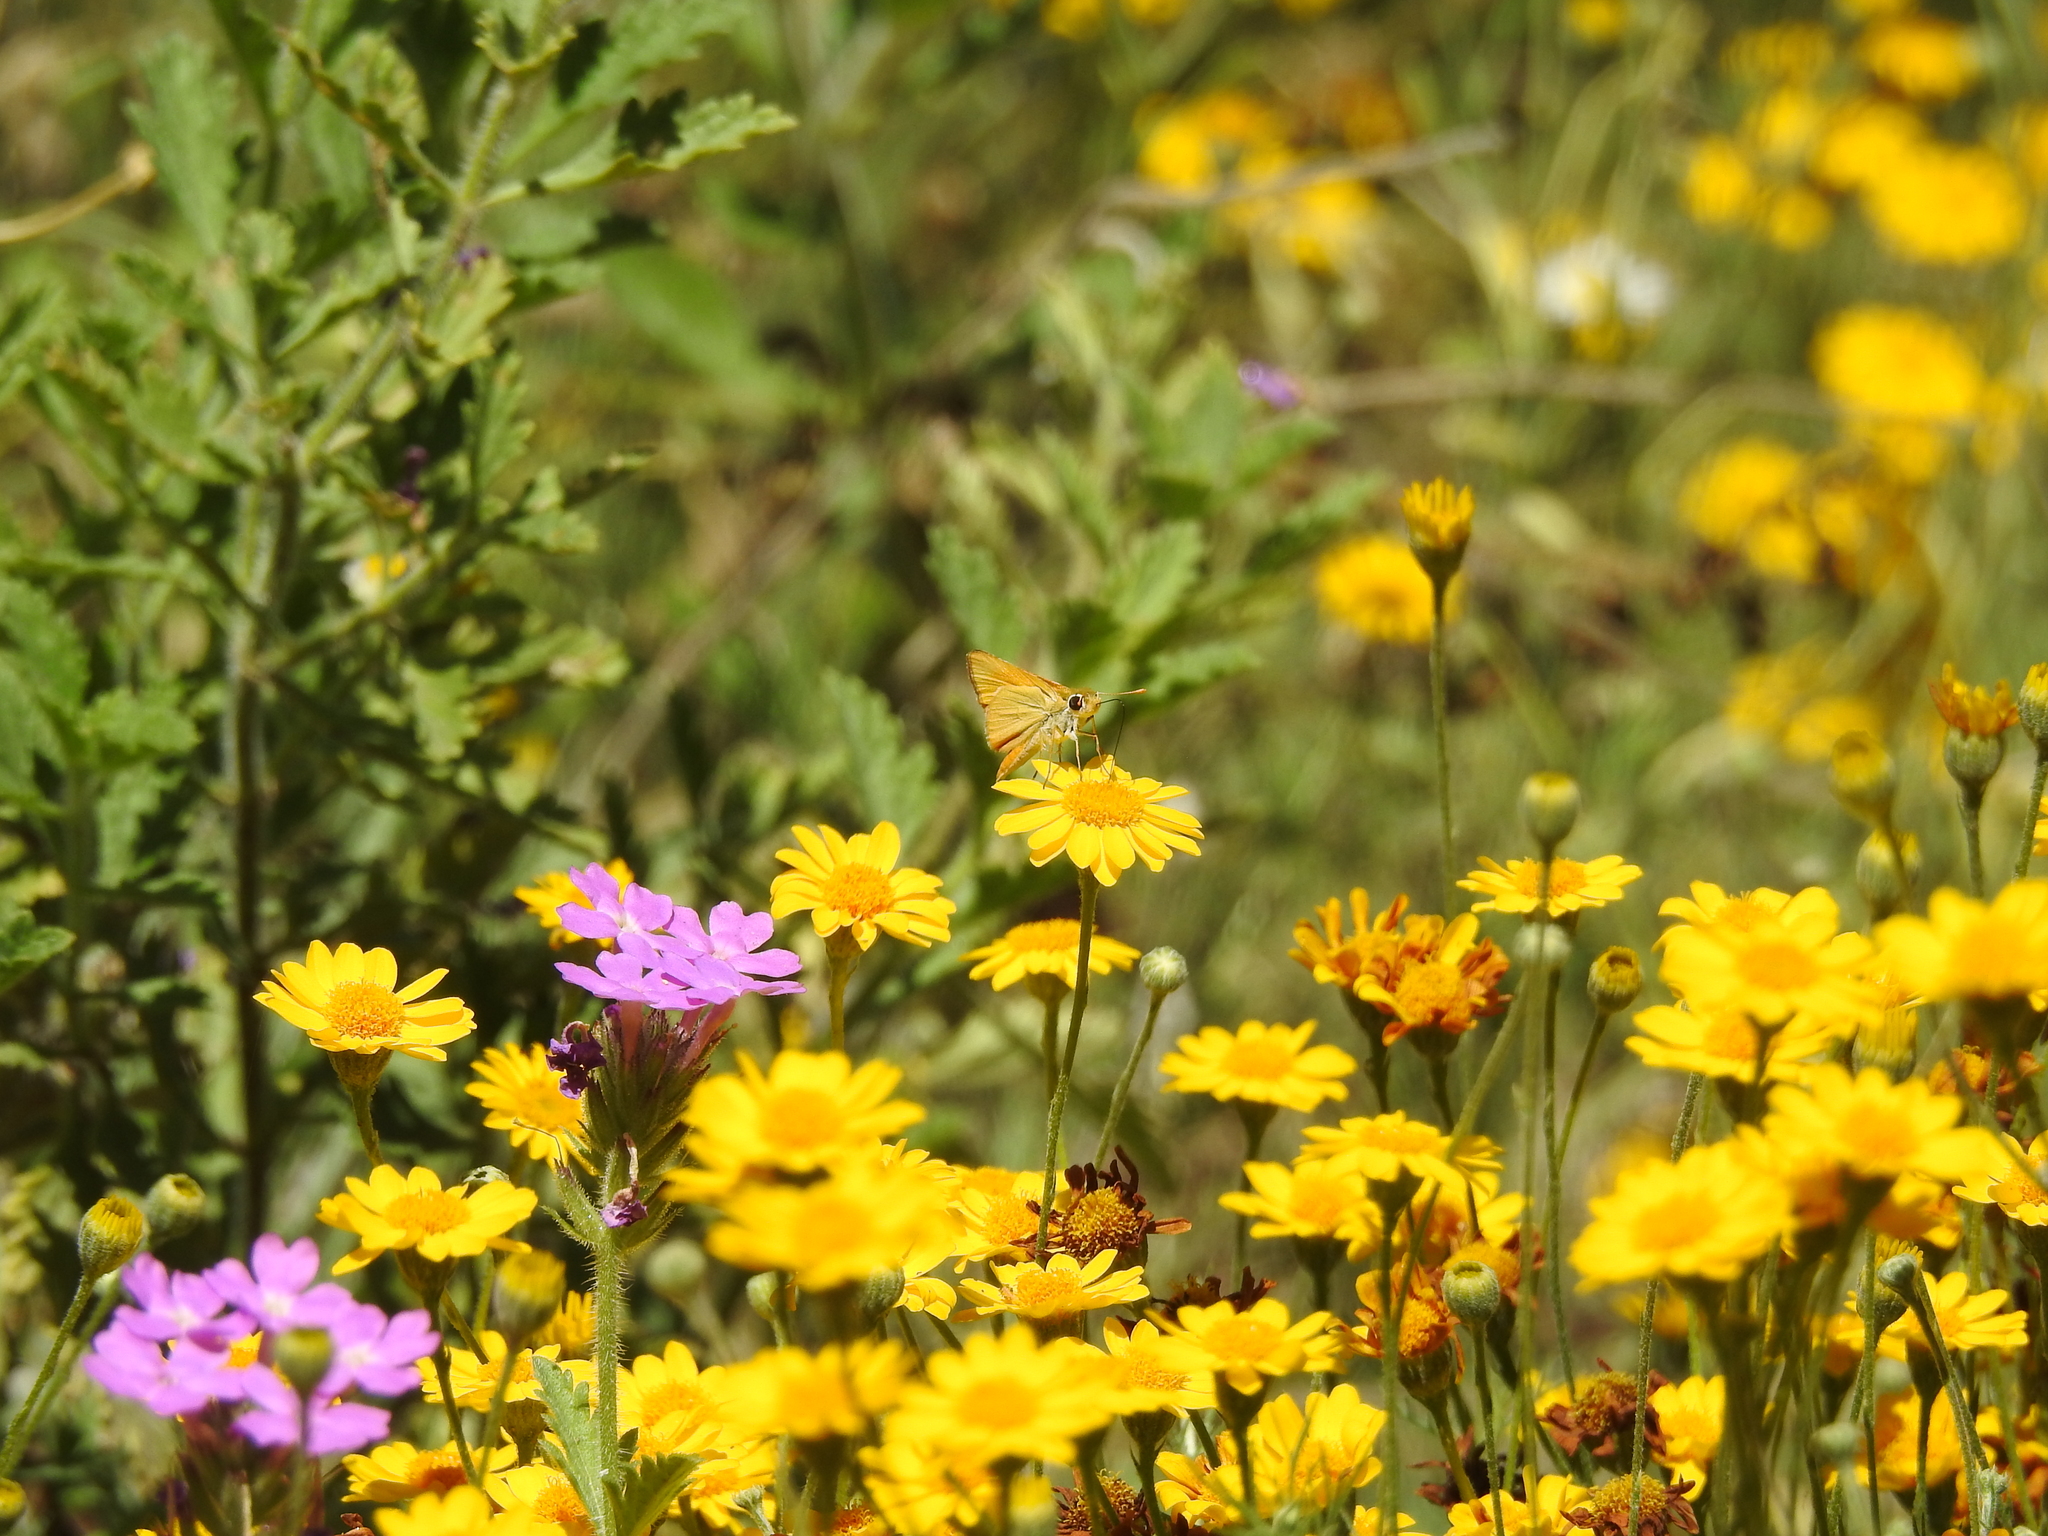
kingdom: Animalia
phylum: Arthropoda
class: Insecta
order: Lepidoptera
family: Hesperiidae
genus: Hylephila
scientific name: Hylephila phyleus
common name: Fiery skipper
